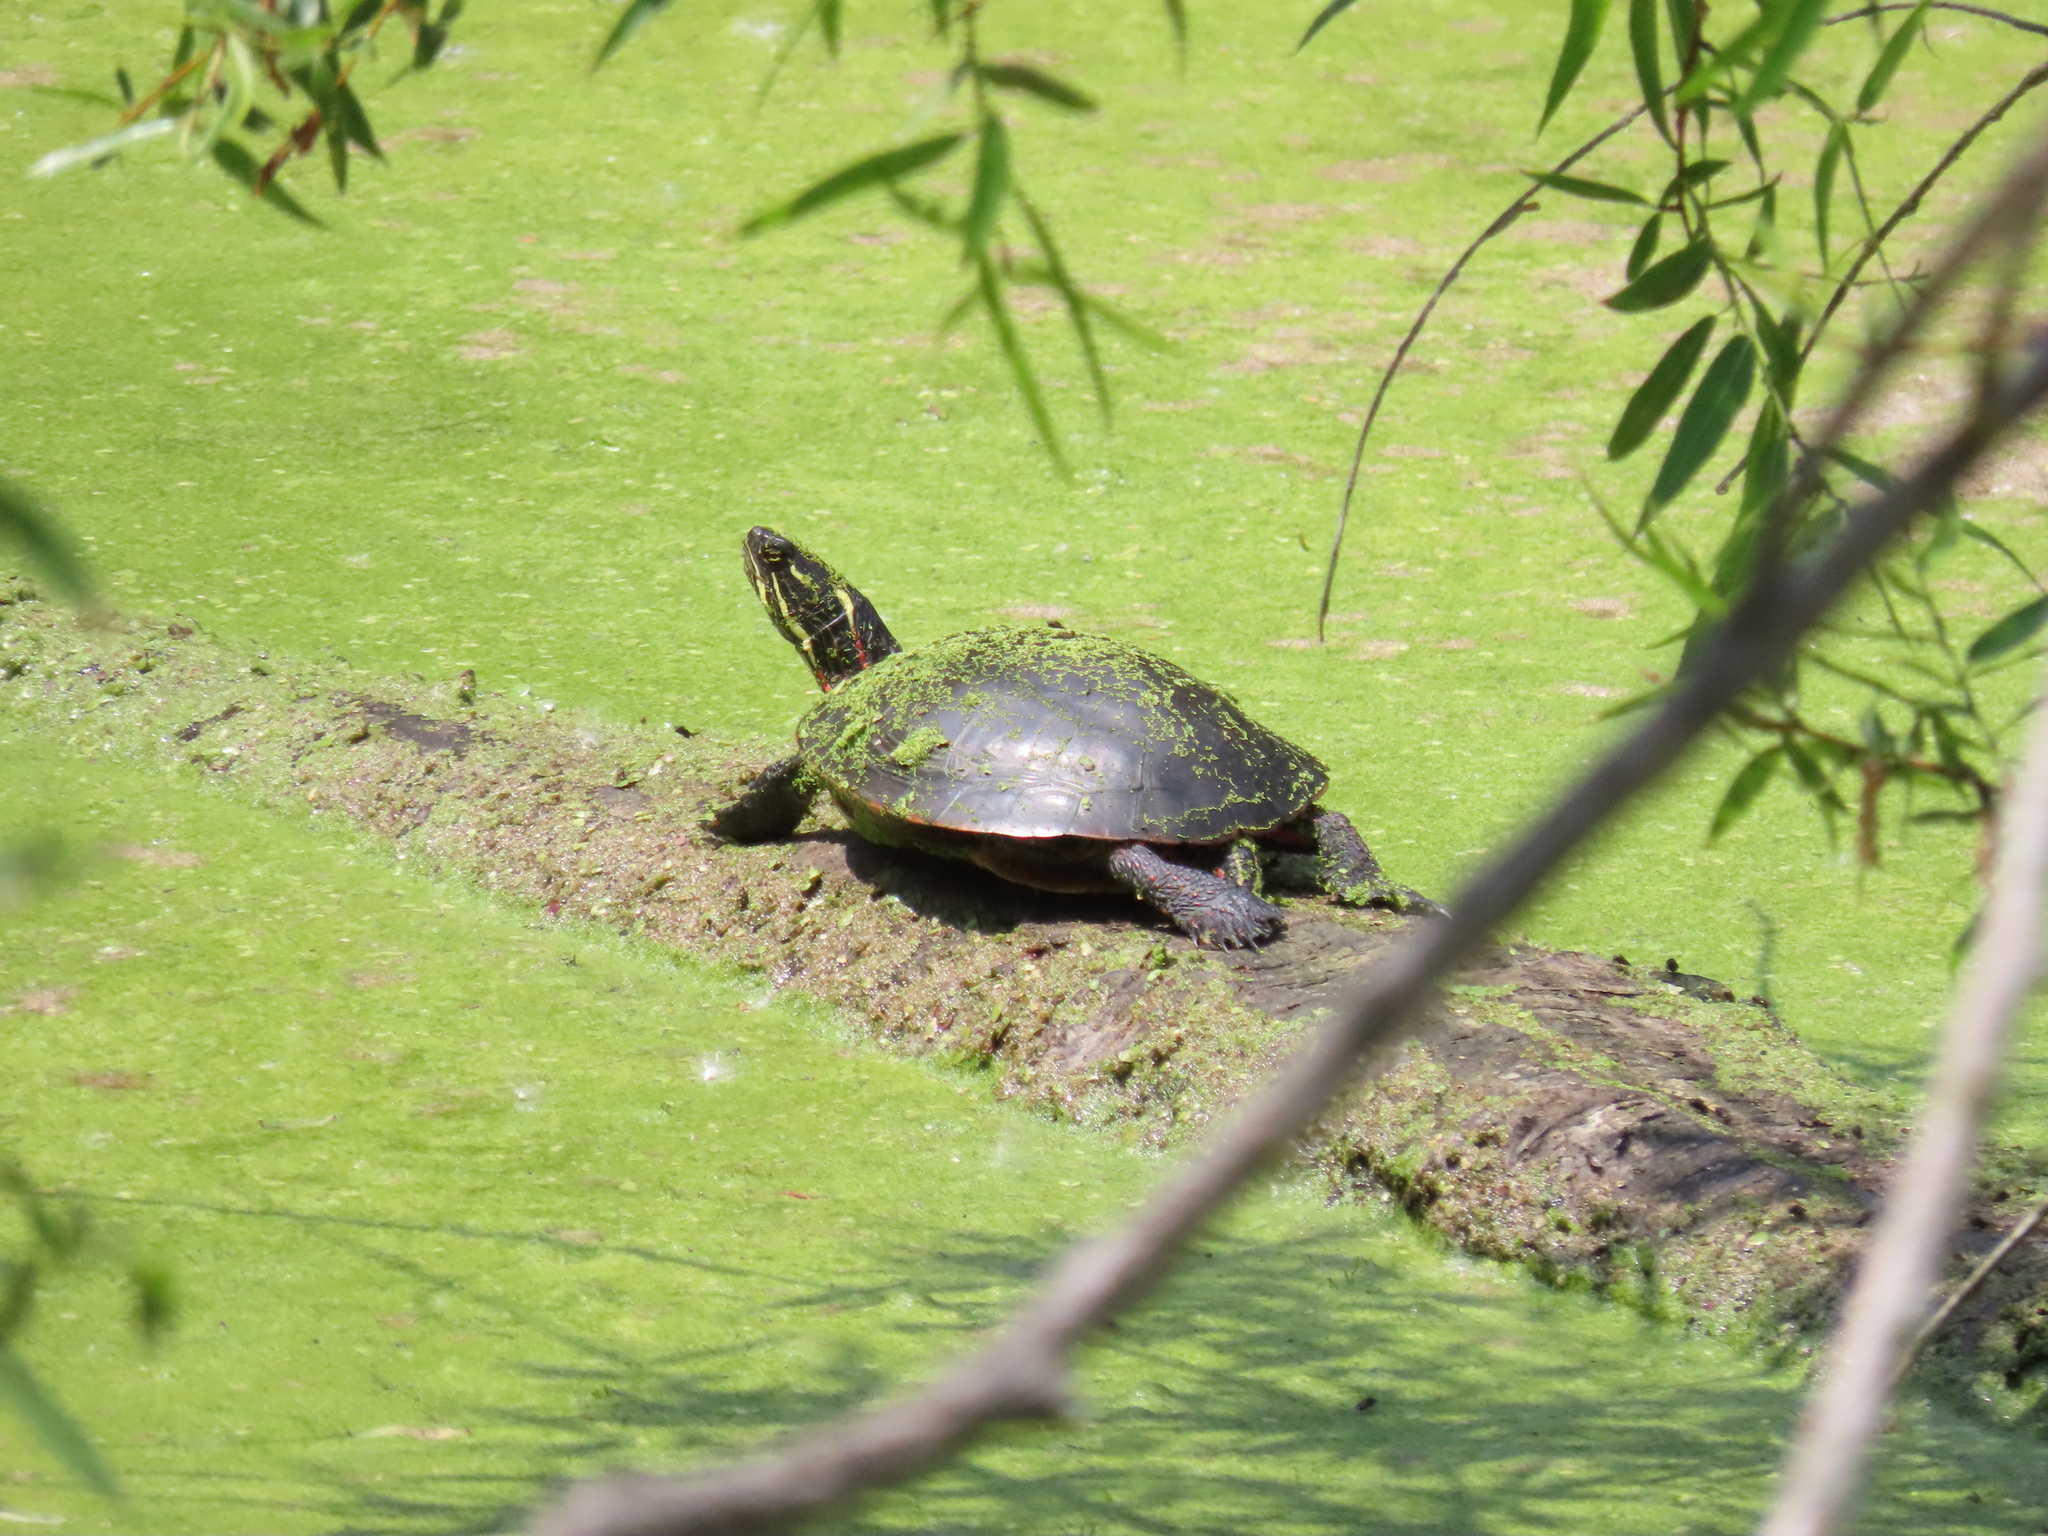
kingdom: Animalia
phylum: Chordata
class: Testudines
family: Emydidae
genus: Chrysemys
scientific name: Chrysemys picta
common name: Painted turtle
